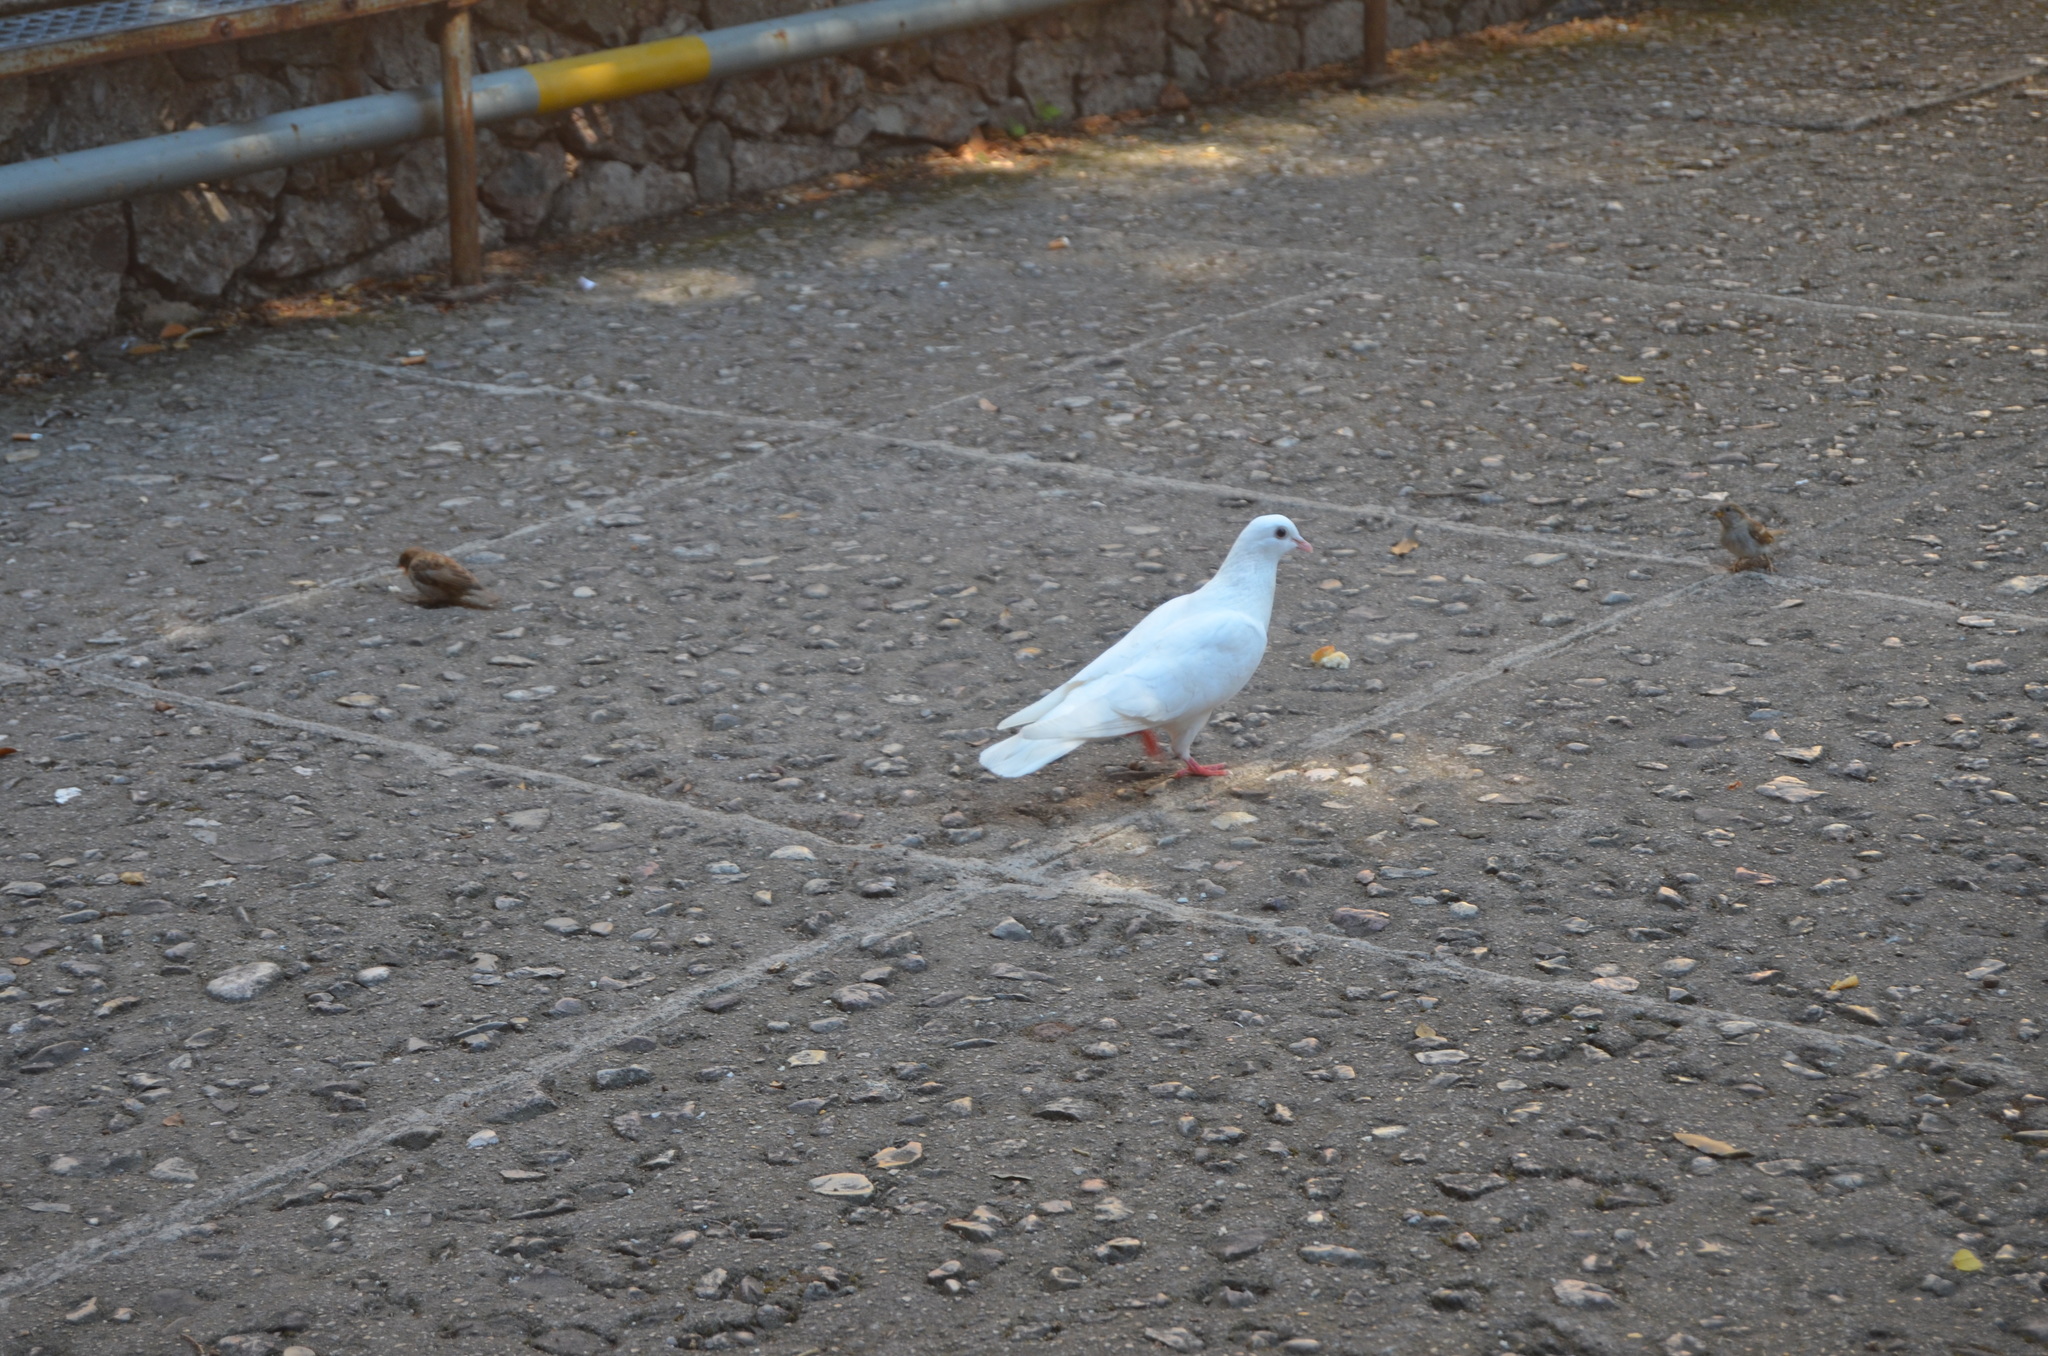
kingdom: Animalia
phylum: Chordata
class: Aves
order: Columbiformes
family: Columbidae
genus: Columba
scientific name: Columba livia
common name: Rock pigeon
